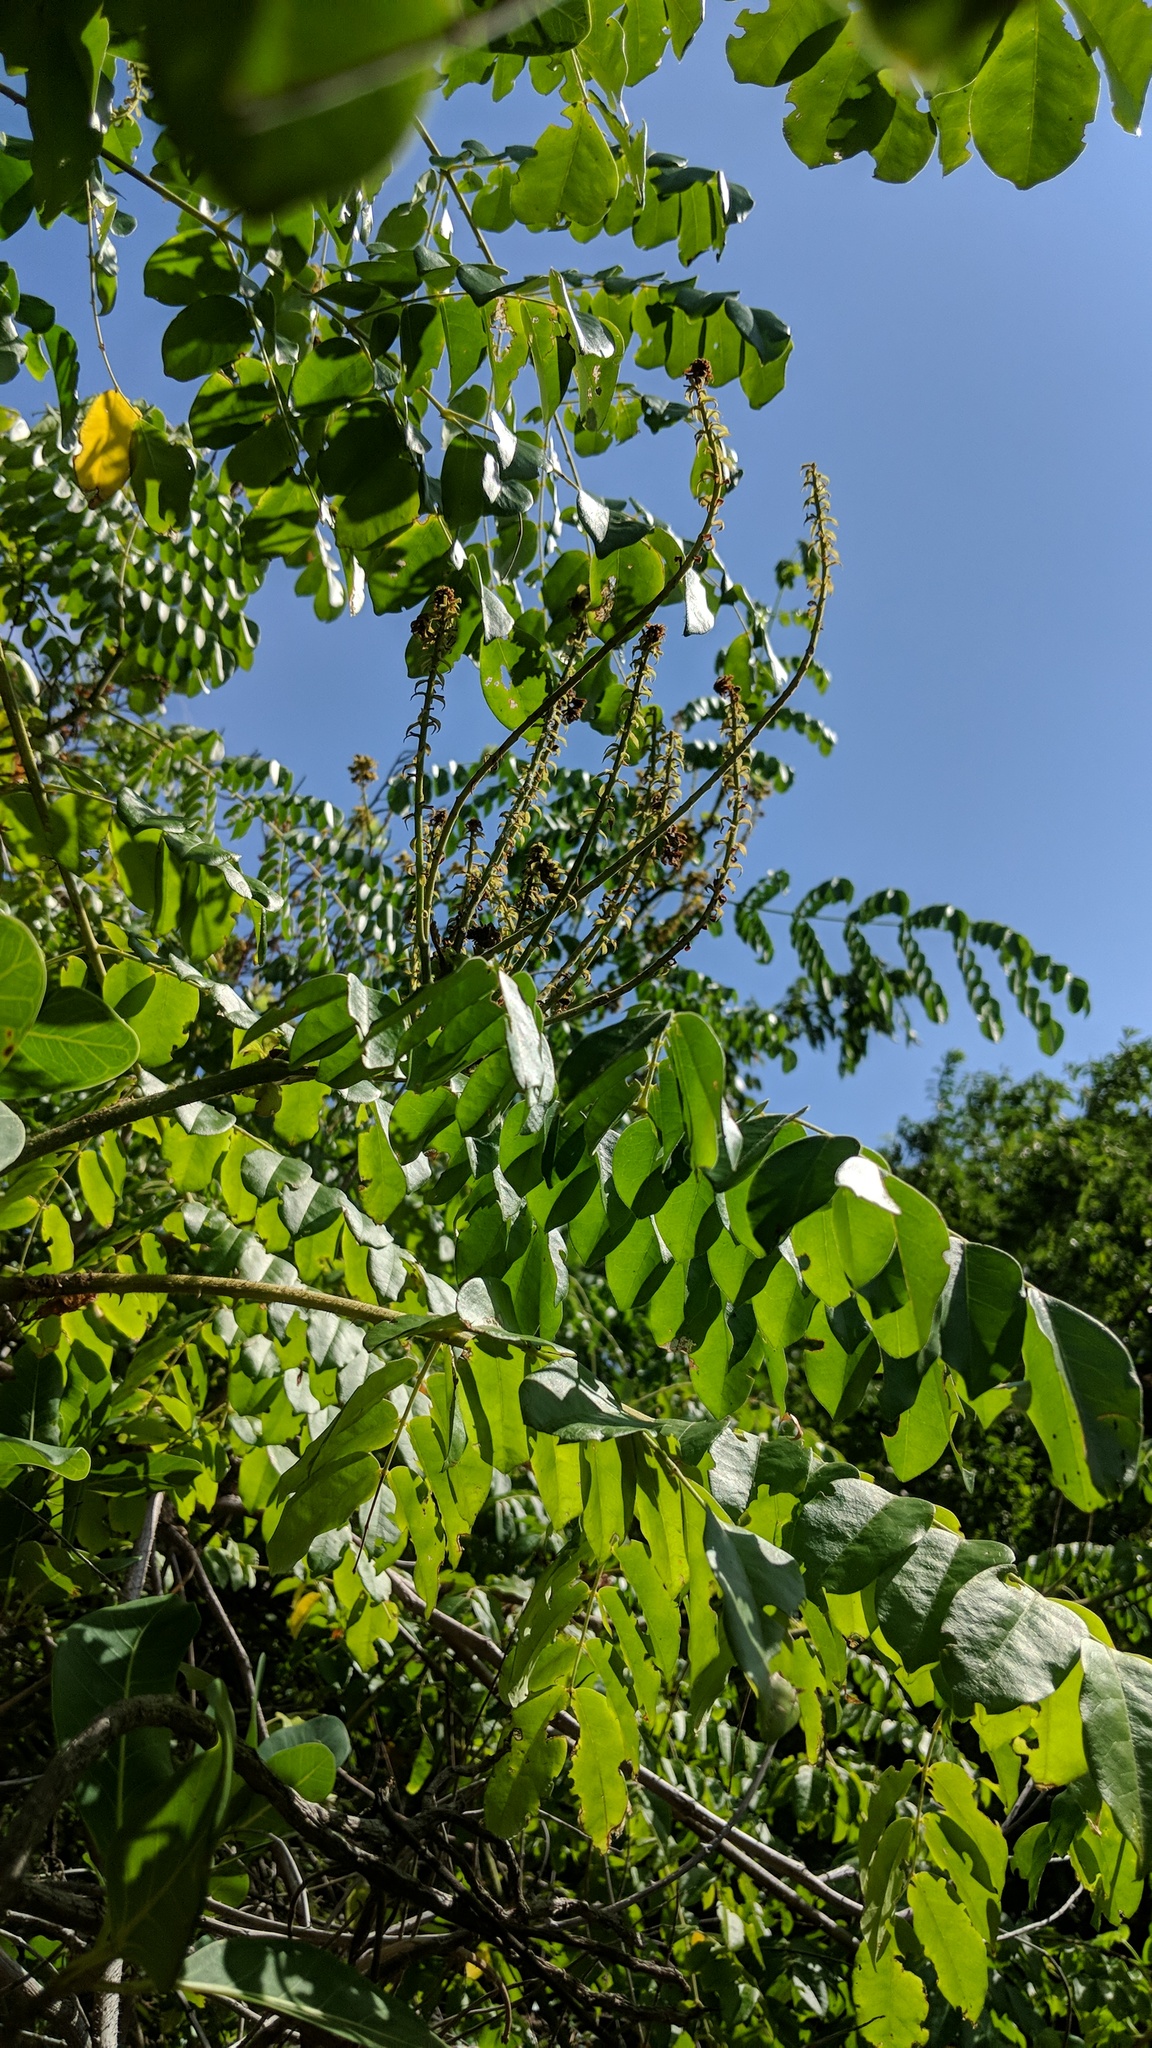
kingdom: Plantae
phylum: Tracheophyta
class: Magnoliopsida
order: Fabales
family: Fabaceae
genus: Guilandina
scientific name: Guilandina bonduc
